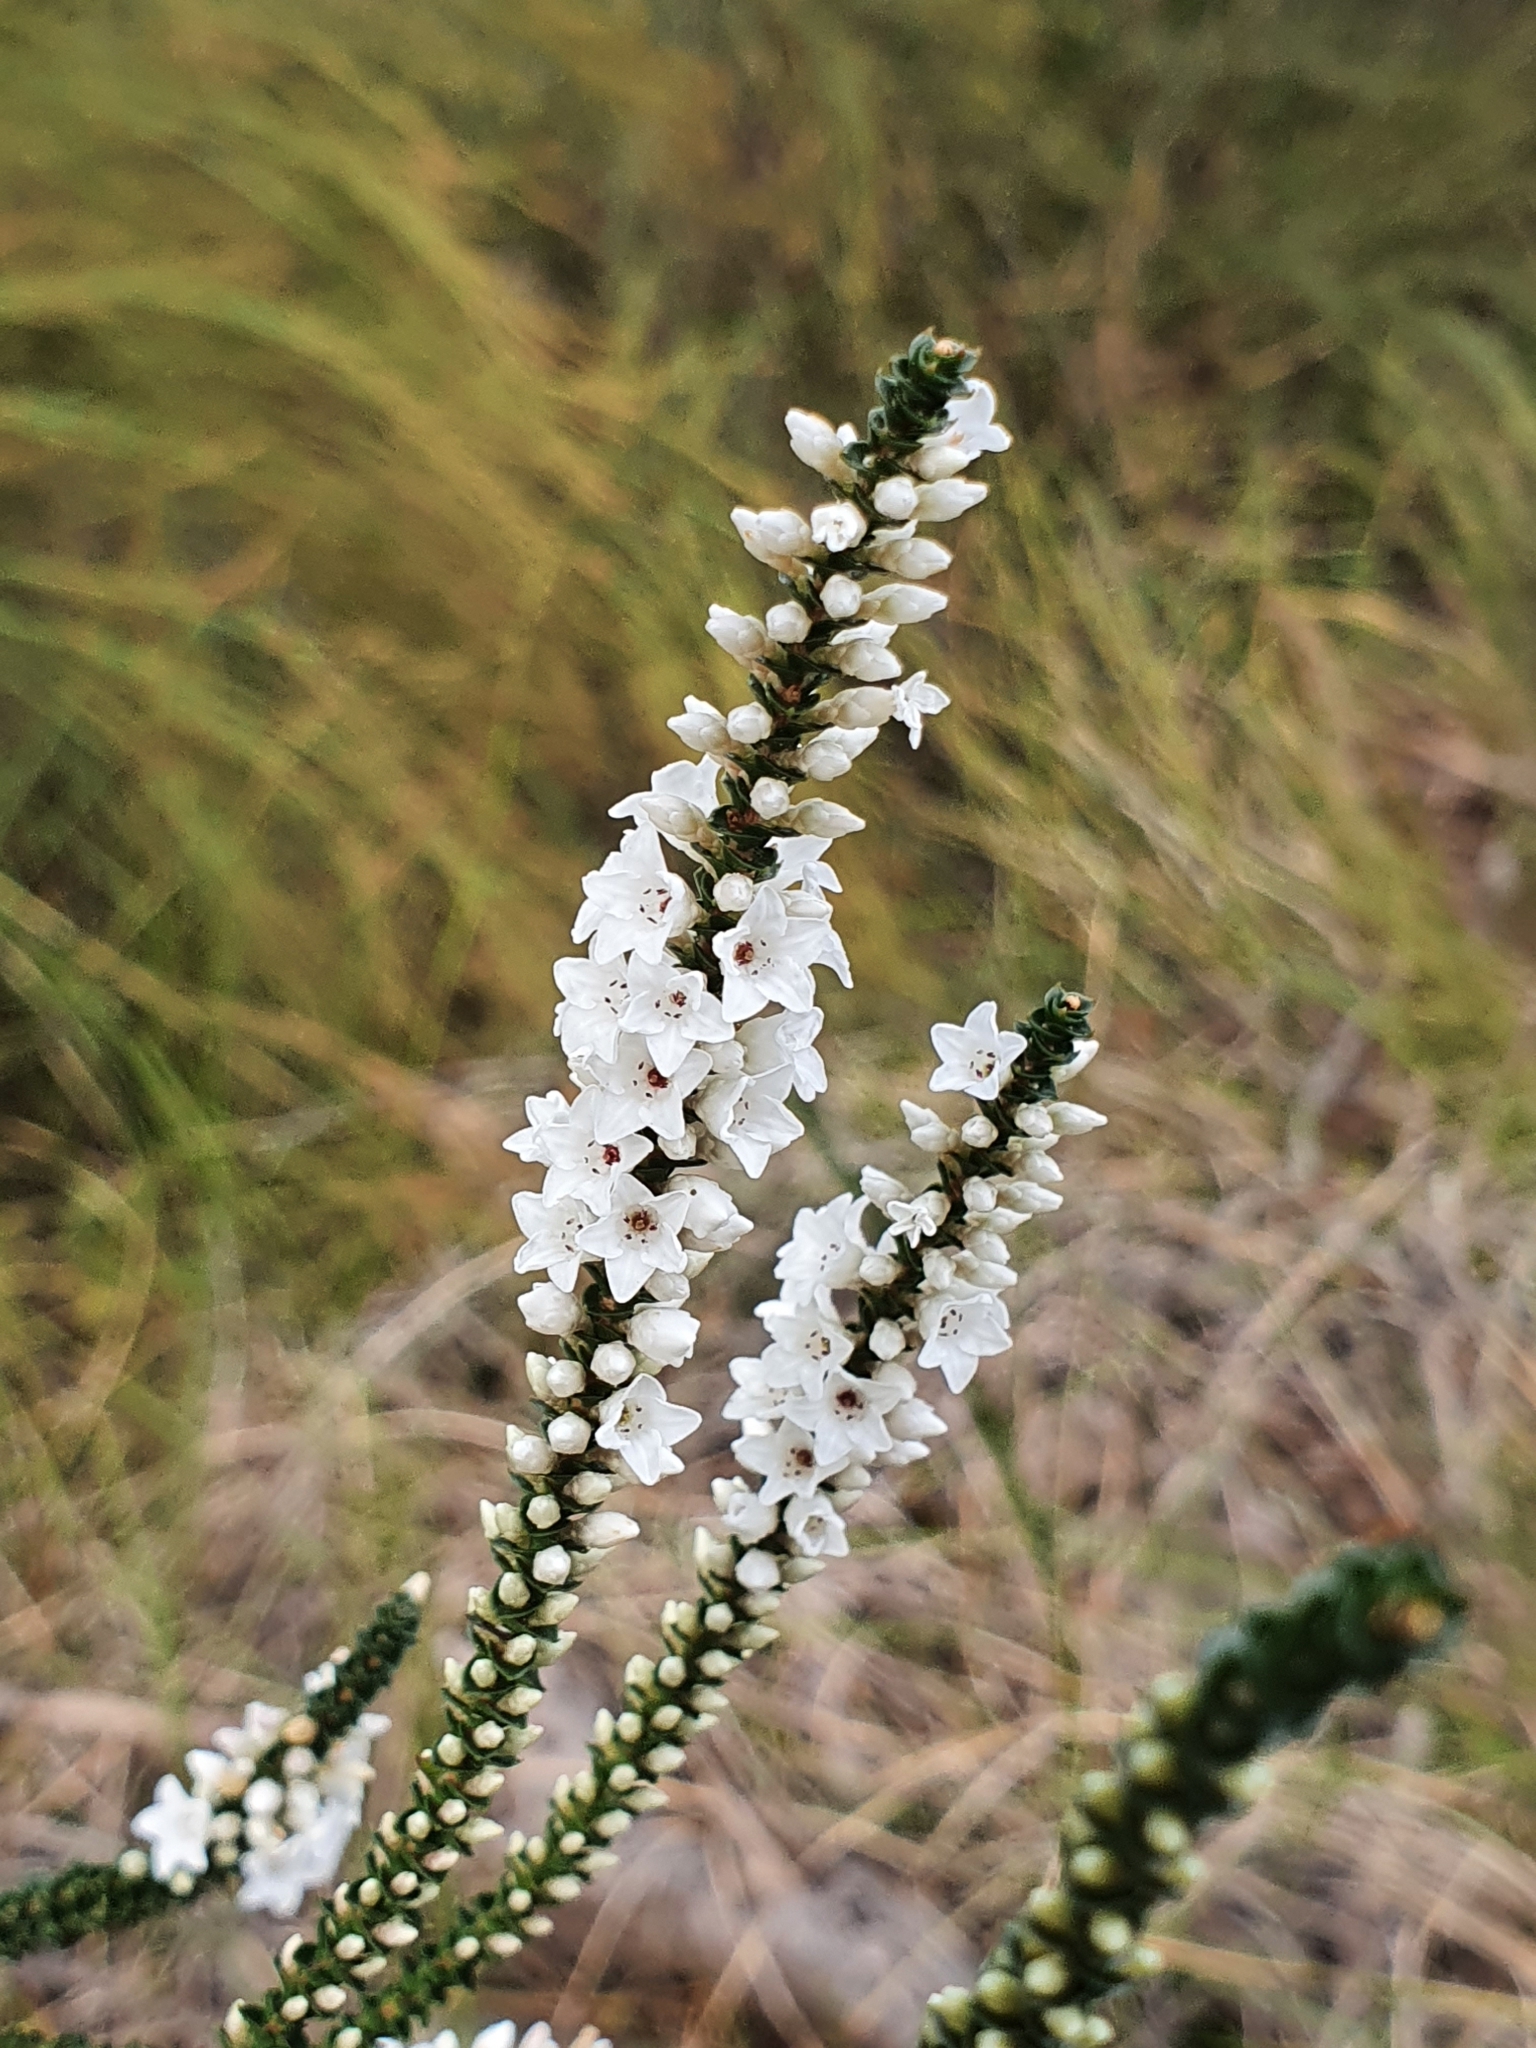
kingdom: Plantae
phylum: Tracheophyta
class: Magnoliopsida
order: Ericales
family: Ericaceae
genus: Epacris
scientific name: Epacris microphylla
